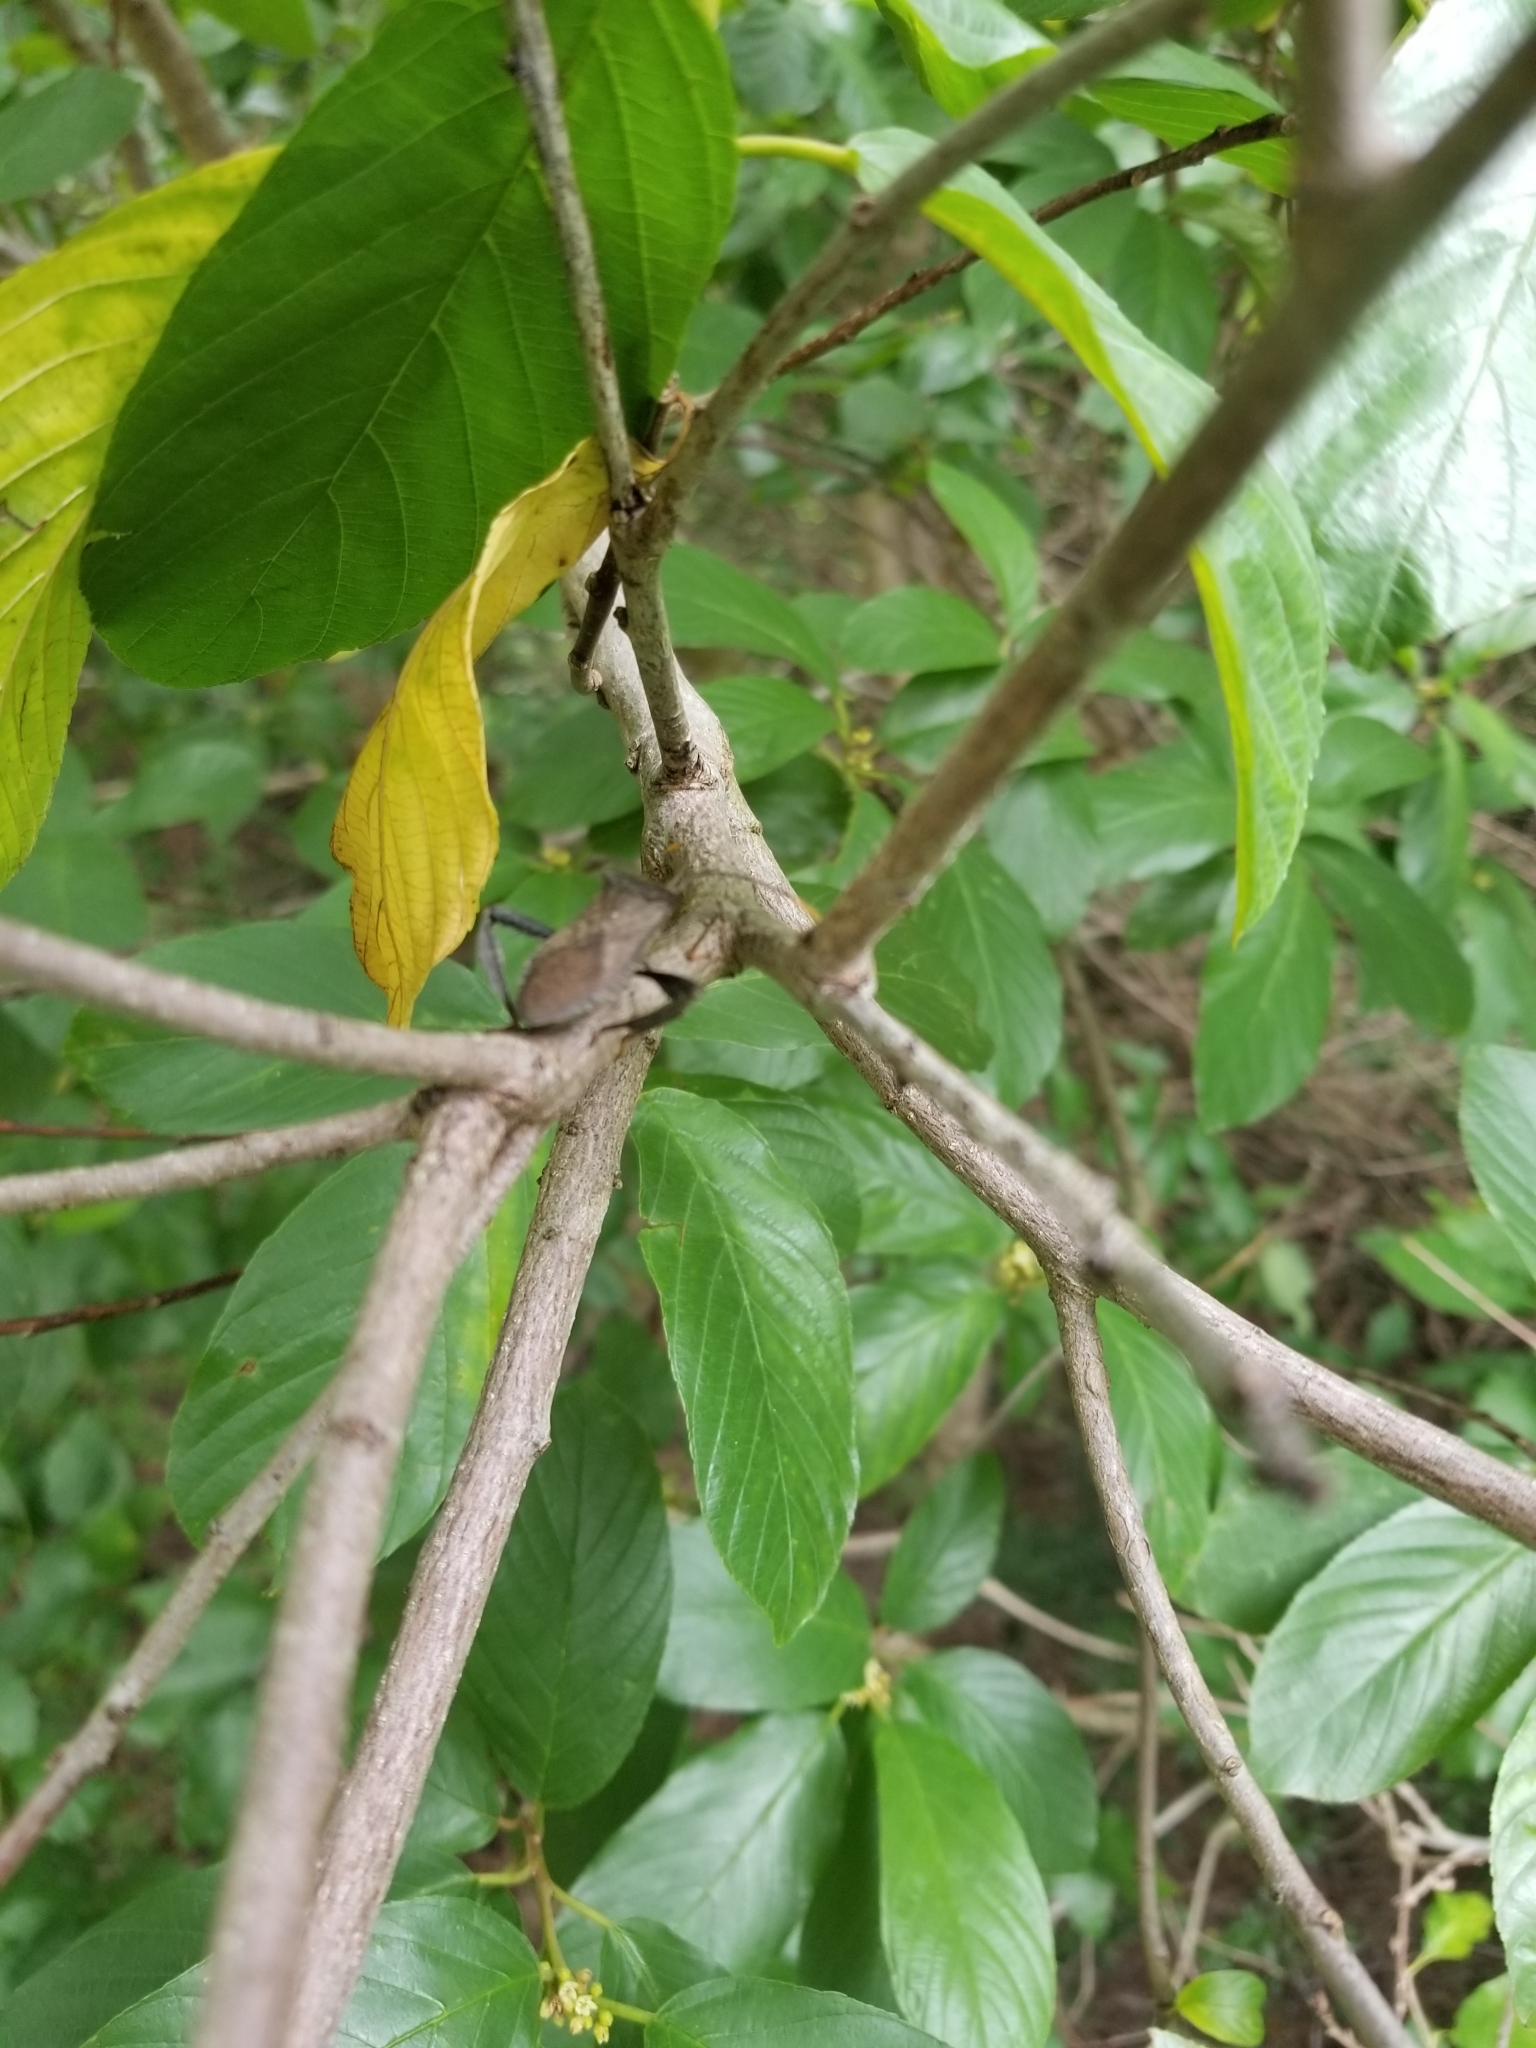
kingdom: Animalia
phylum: Arthropoda
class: Insecta
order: Hemiptera
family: Coreidae
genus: Acanthocephala
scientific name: Acanthocephala terminalis
